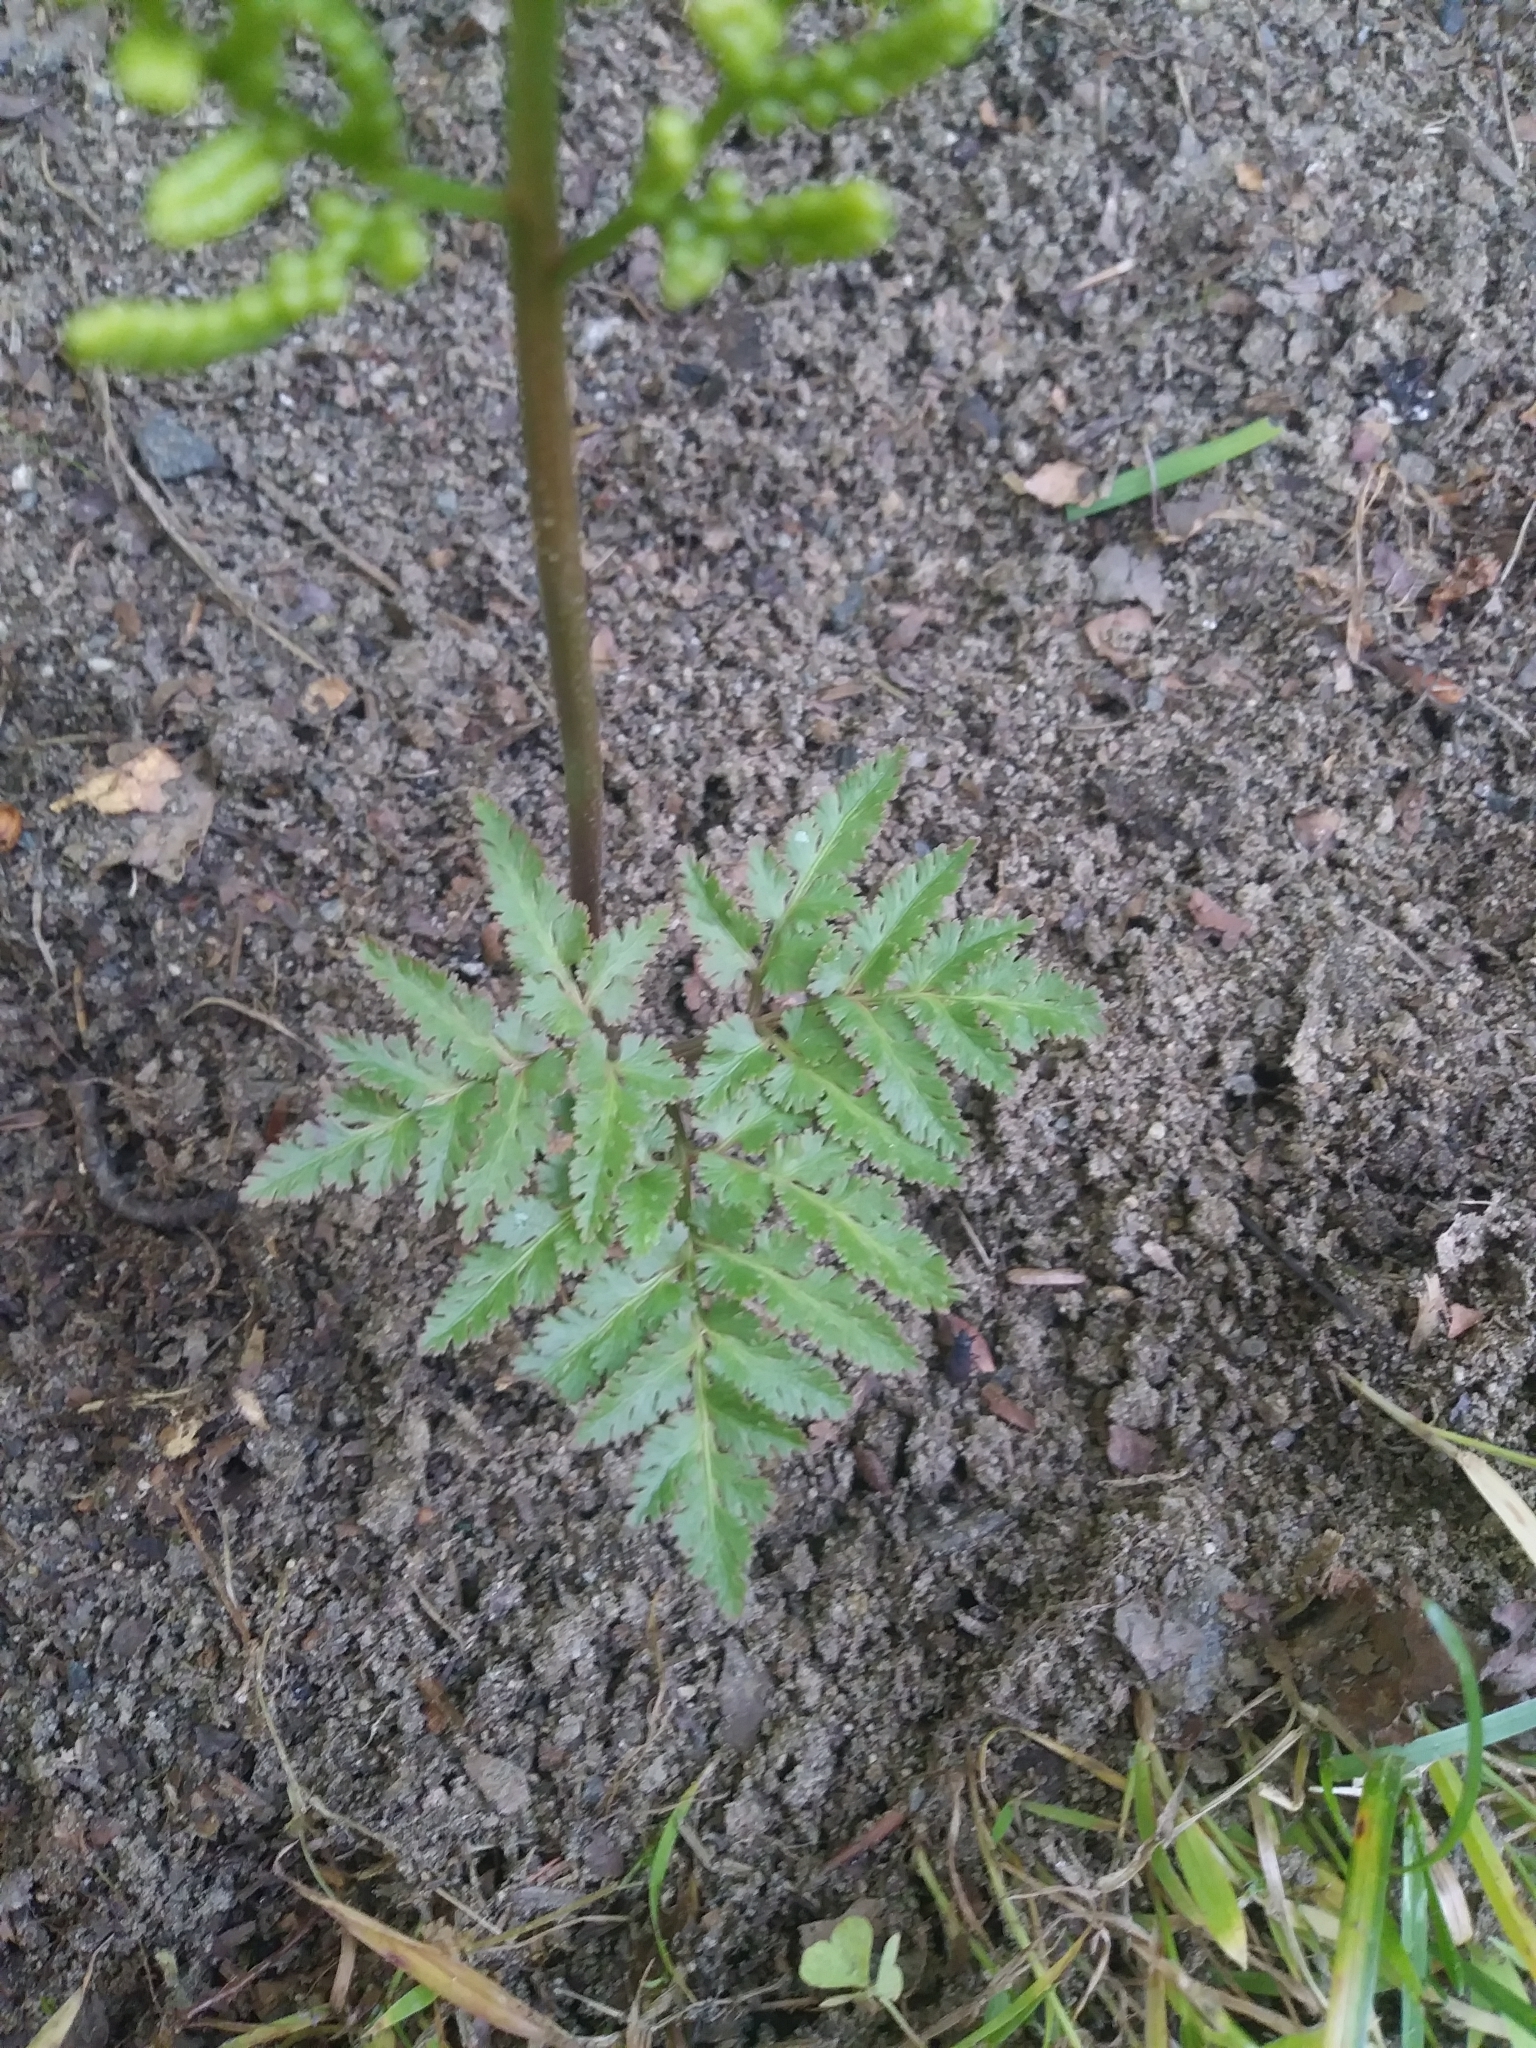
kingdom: Plantae
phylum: Tracheophyta
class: Polypodiopsida
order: Ophioglossales
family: Ophioglossaceae
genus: Sceptridium
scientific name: Sceptridium dissectum
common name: Cut-leaved grapefern
